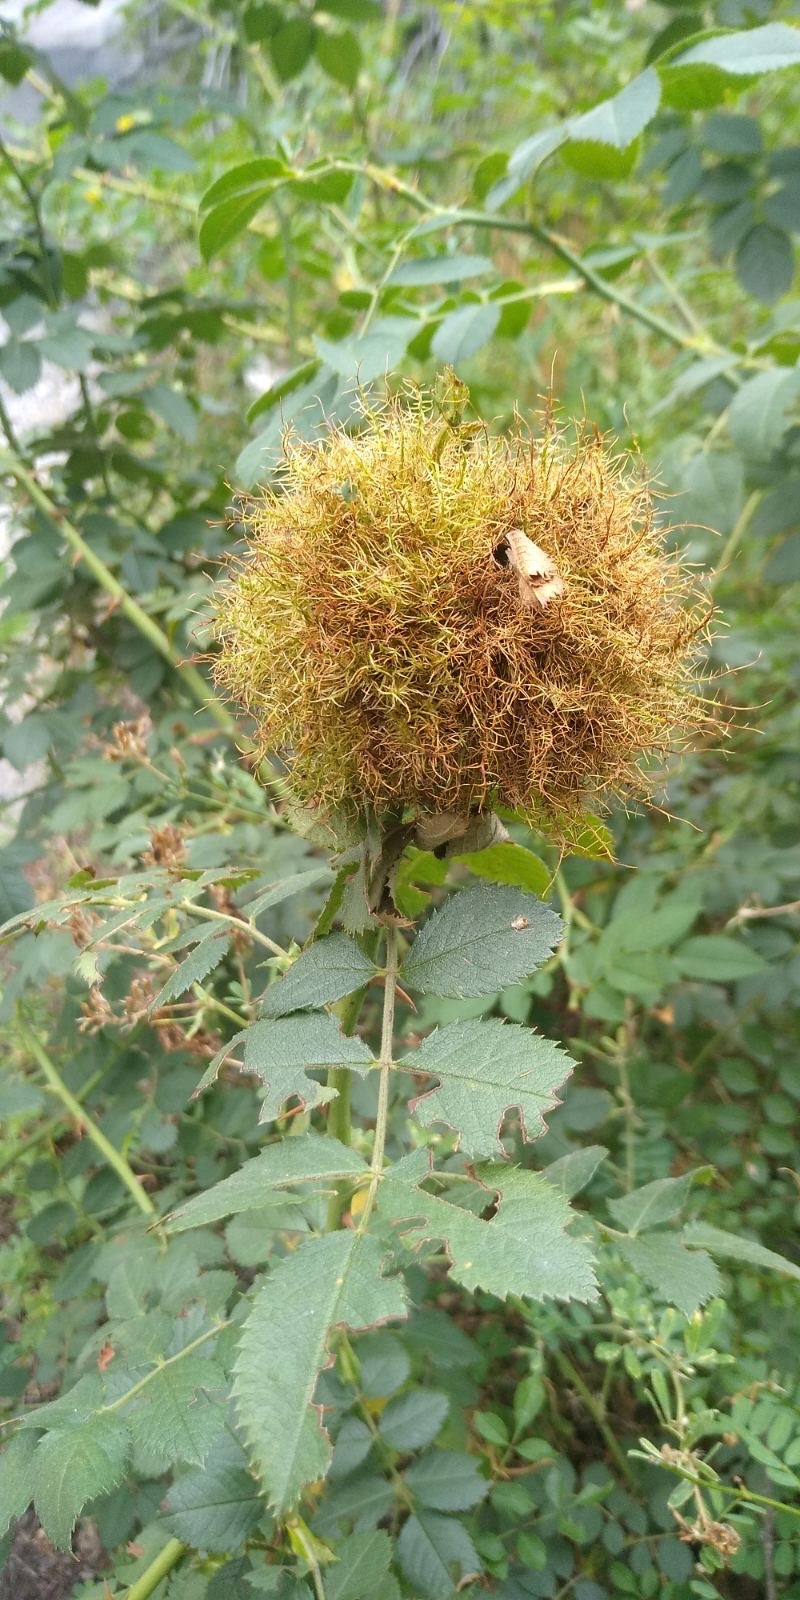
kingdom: Animalia
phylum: Arthropoda
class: Insecta
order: Hymenoptera
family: Cynipidae
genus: Diplolepis
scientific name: Diplolepis rosae
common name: Bedeguar gall
